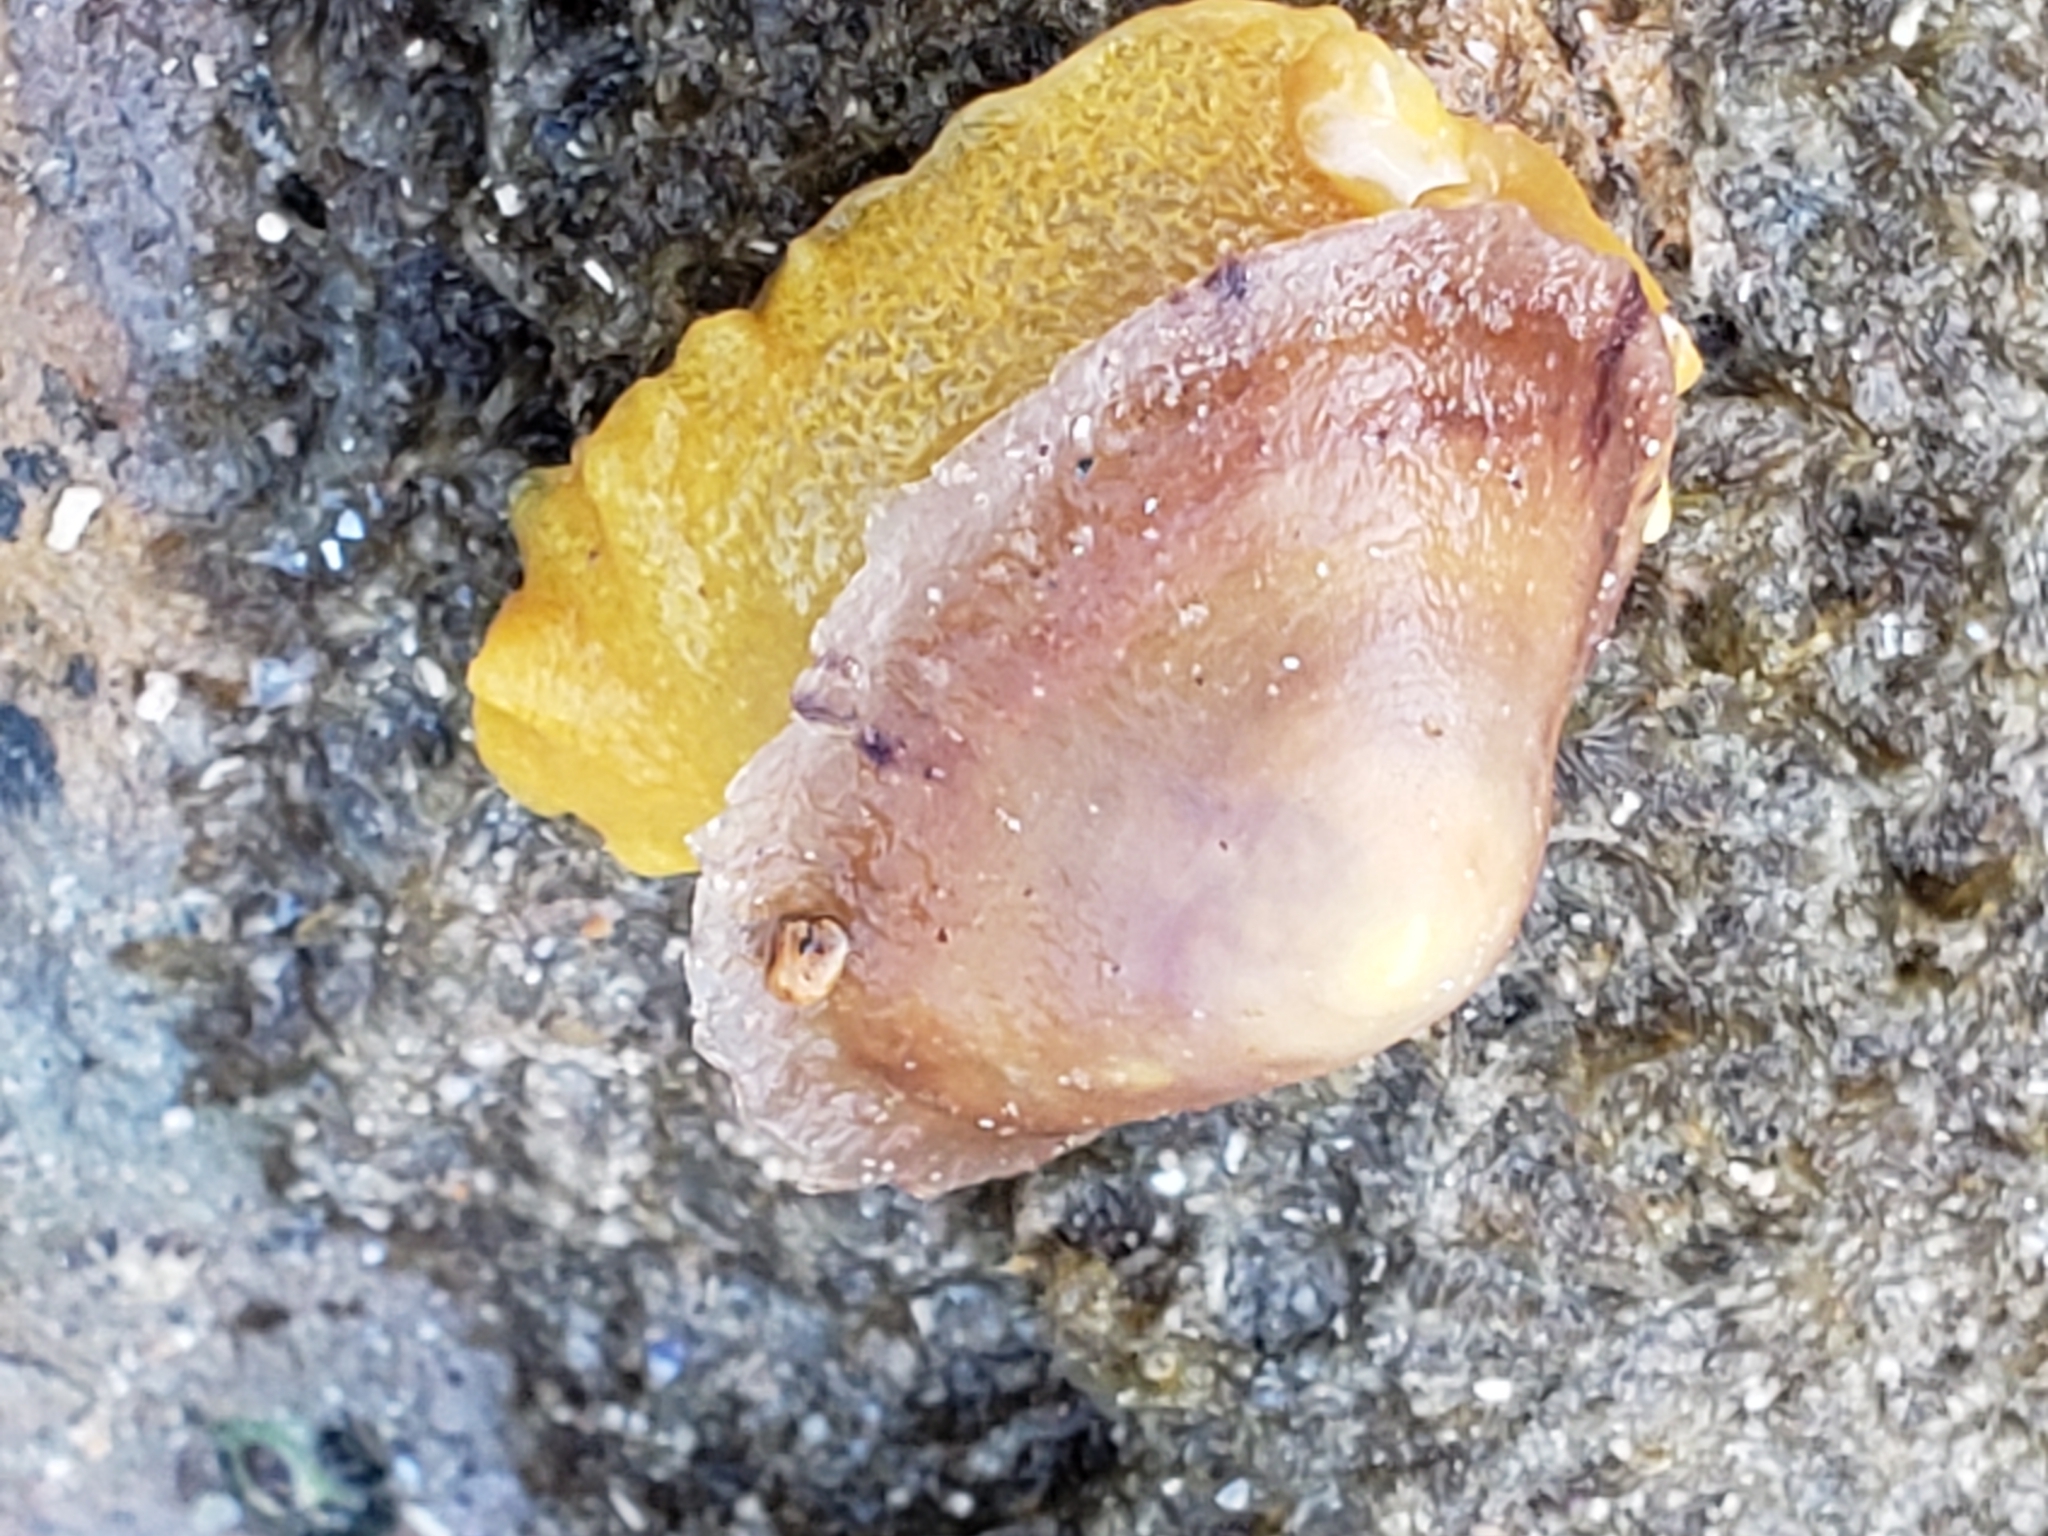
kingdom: Animalia
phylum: Mollusca
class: Gastropoda
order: Umbraculida
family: Tylodinidae
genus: Tylodina
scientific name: Tylodina fungina
